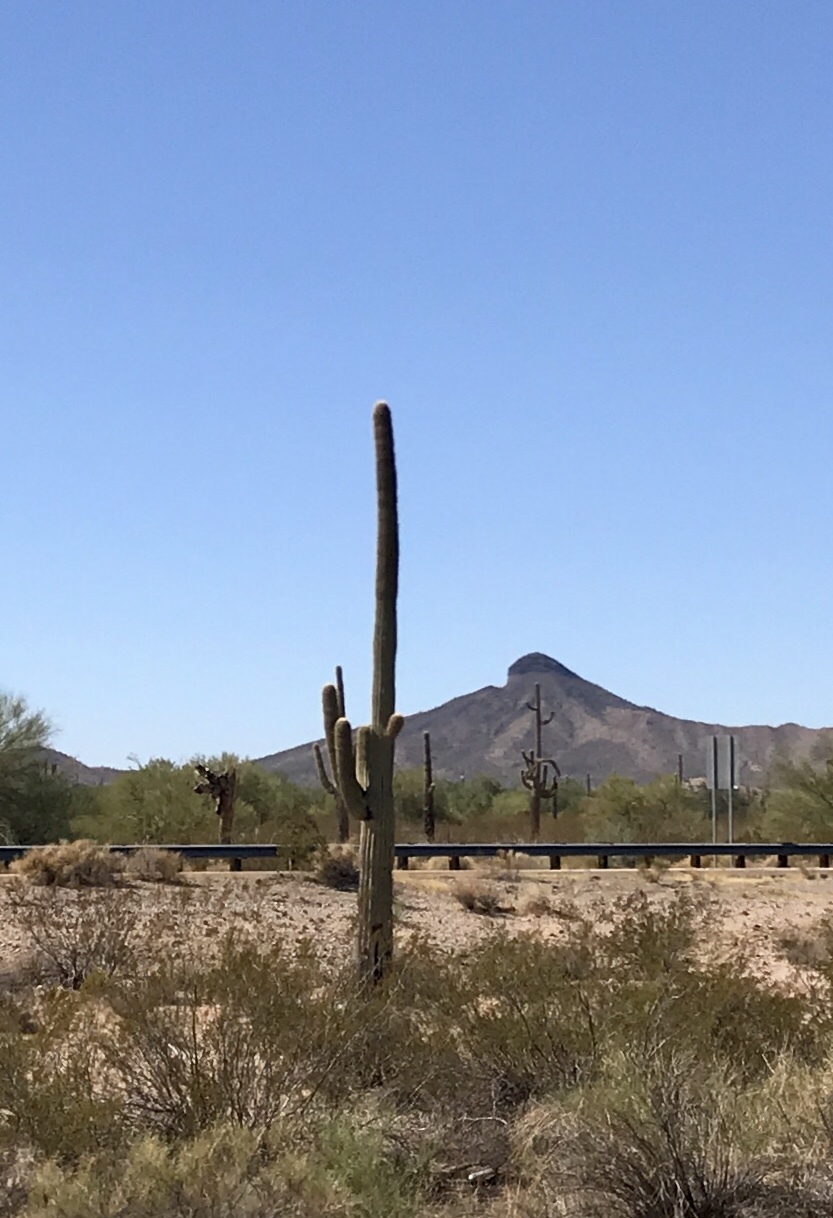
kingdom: Plantae
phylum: Tracheophyta
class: Magnoliopsida
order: Caryophyllales
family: Cactaceae
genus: Carnegiea
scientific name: Carnegiea gigantea
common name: Saguaro
